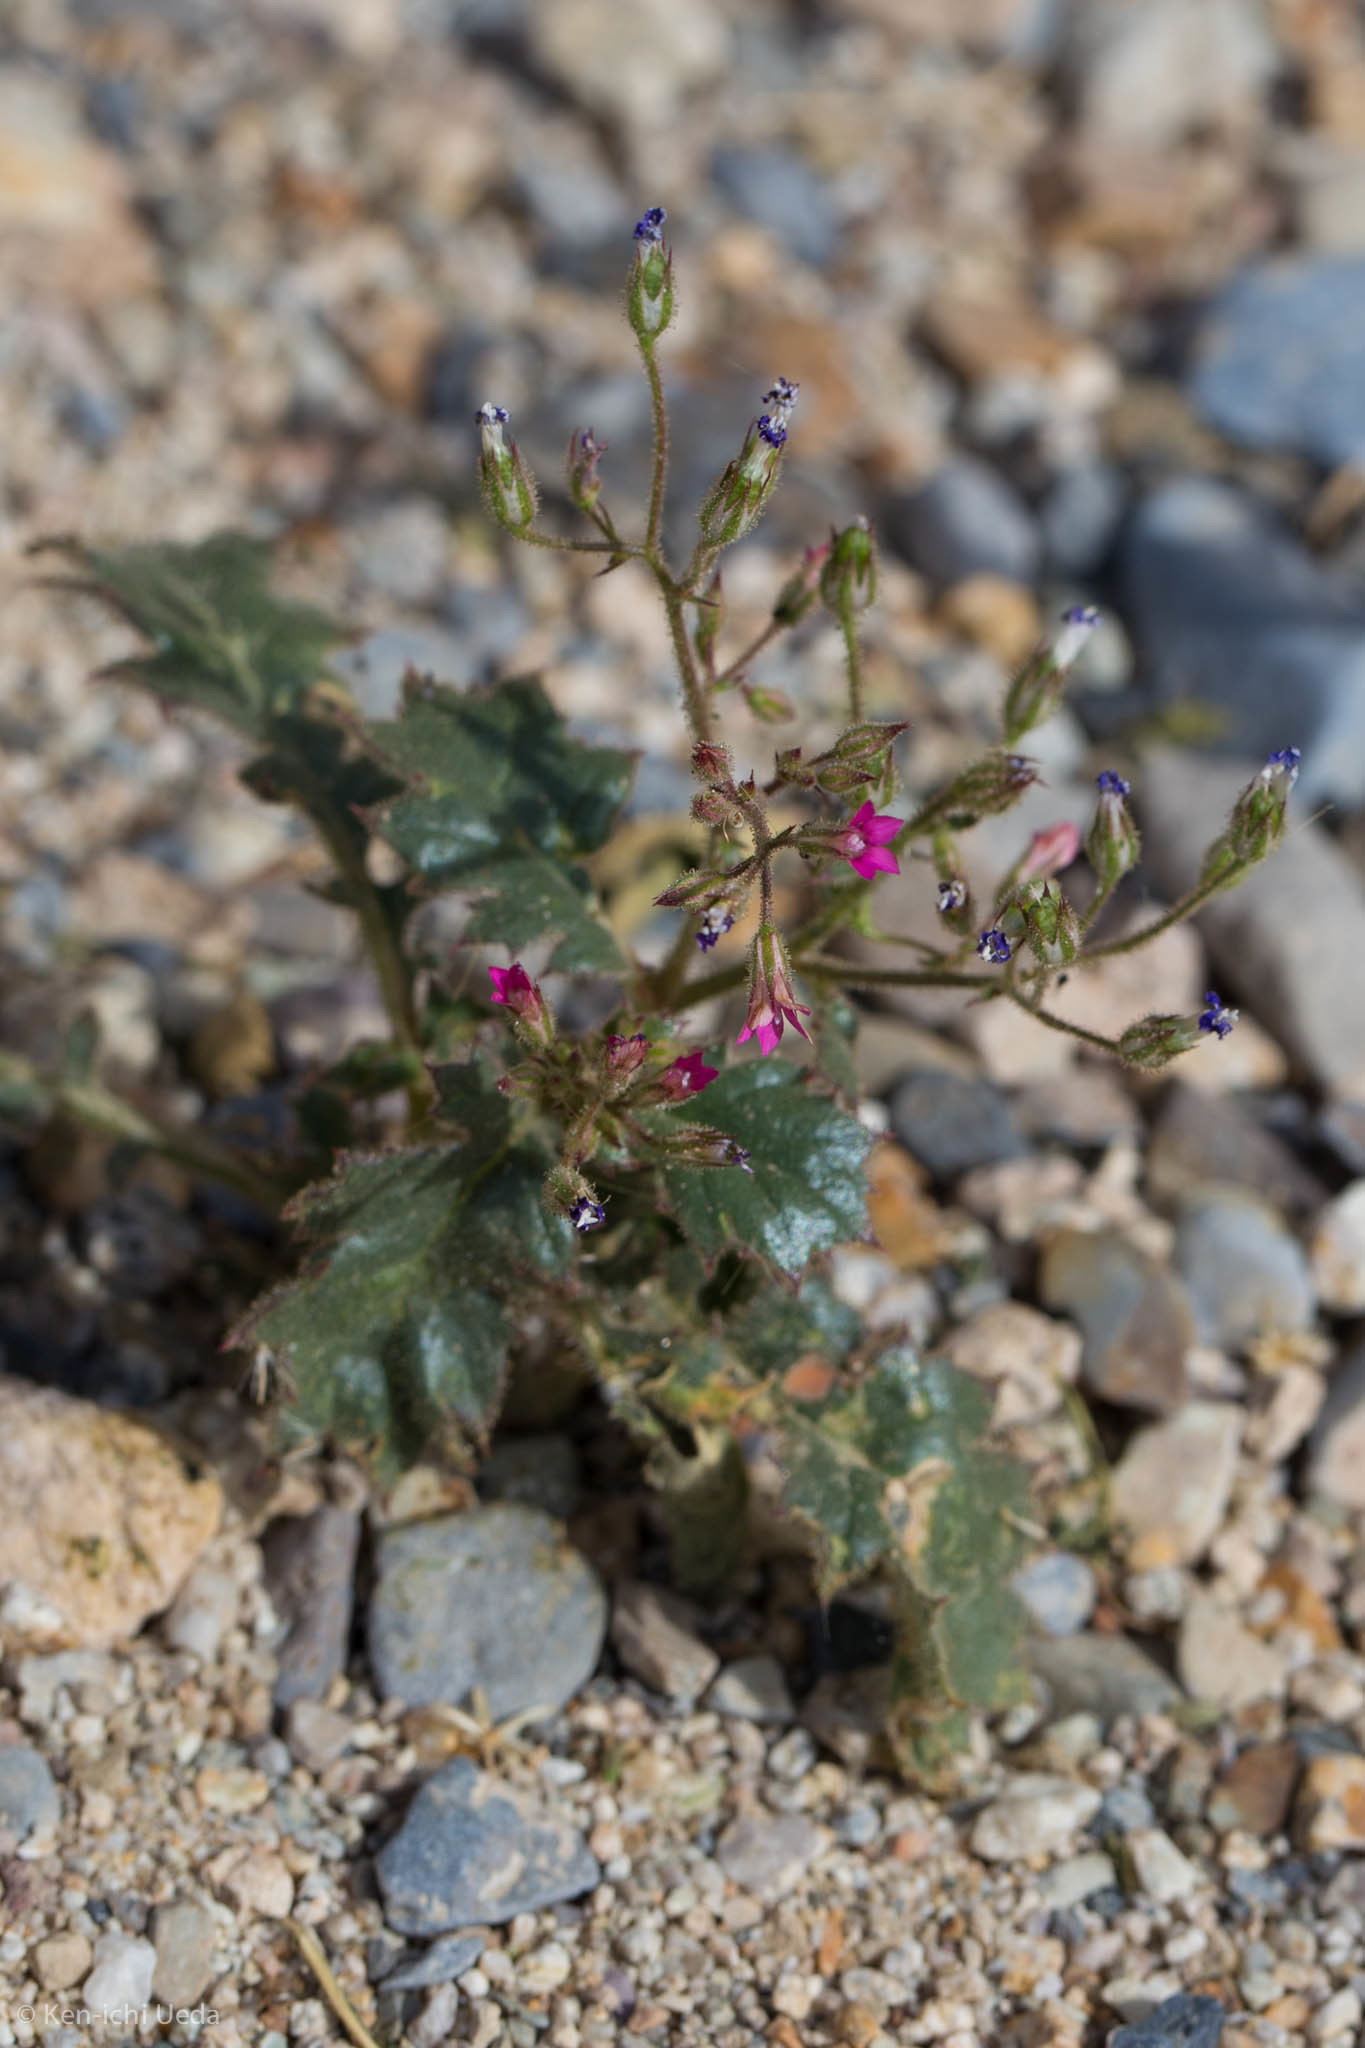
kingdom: Plantae
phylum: Tracheophyta
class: Magnoliopsida
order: Ericales
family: Polemoniaceae
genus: Aliciella
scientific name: Aliciella latifolia
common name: Broad-leaf gilia
